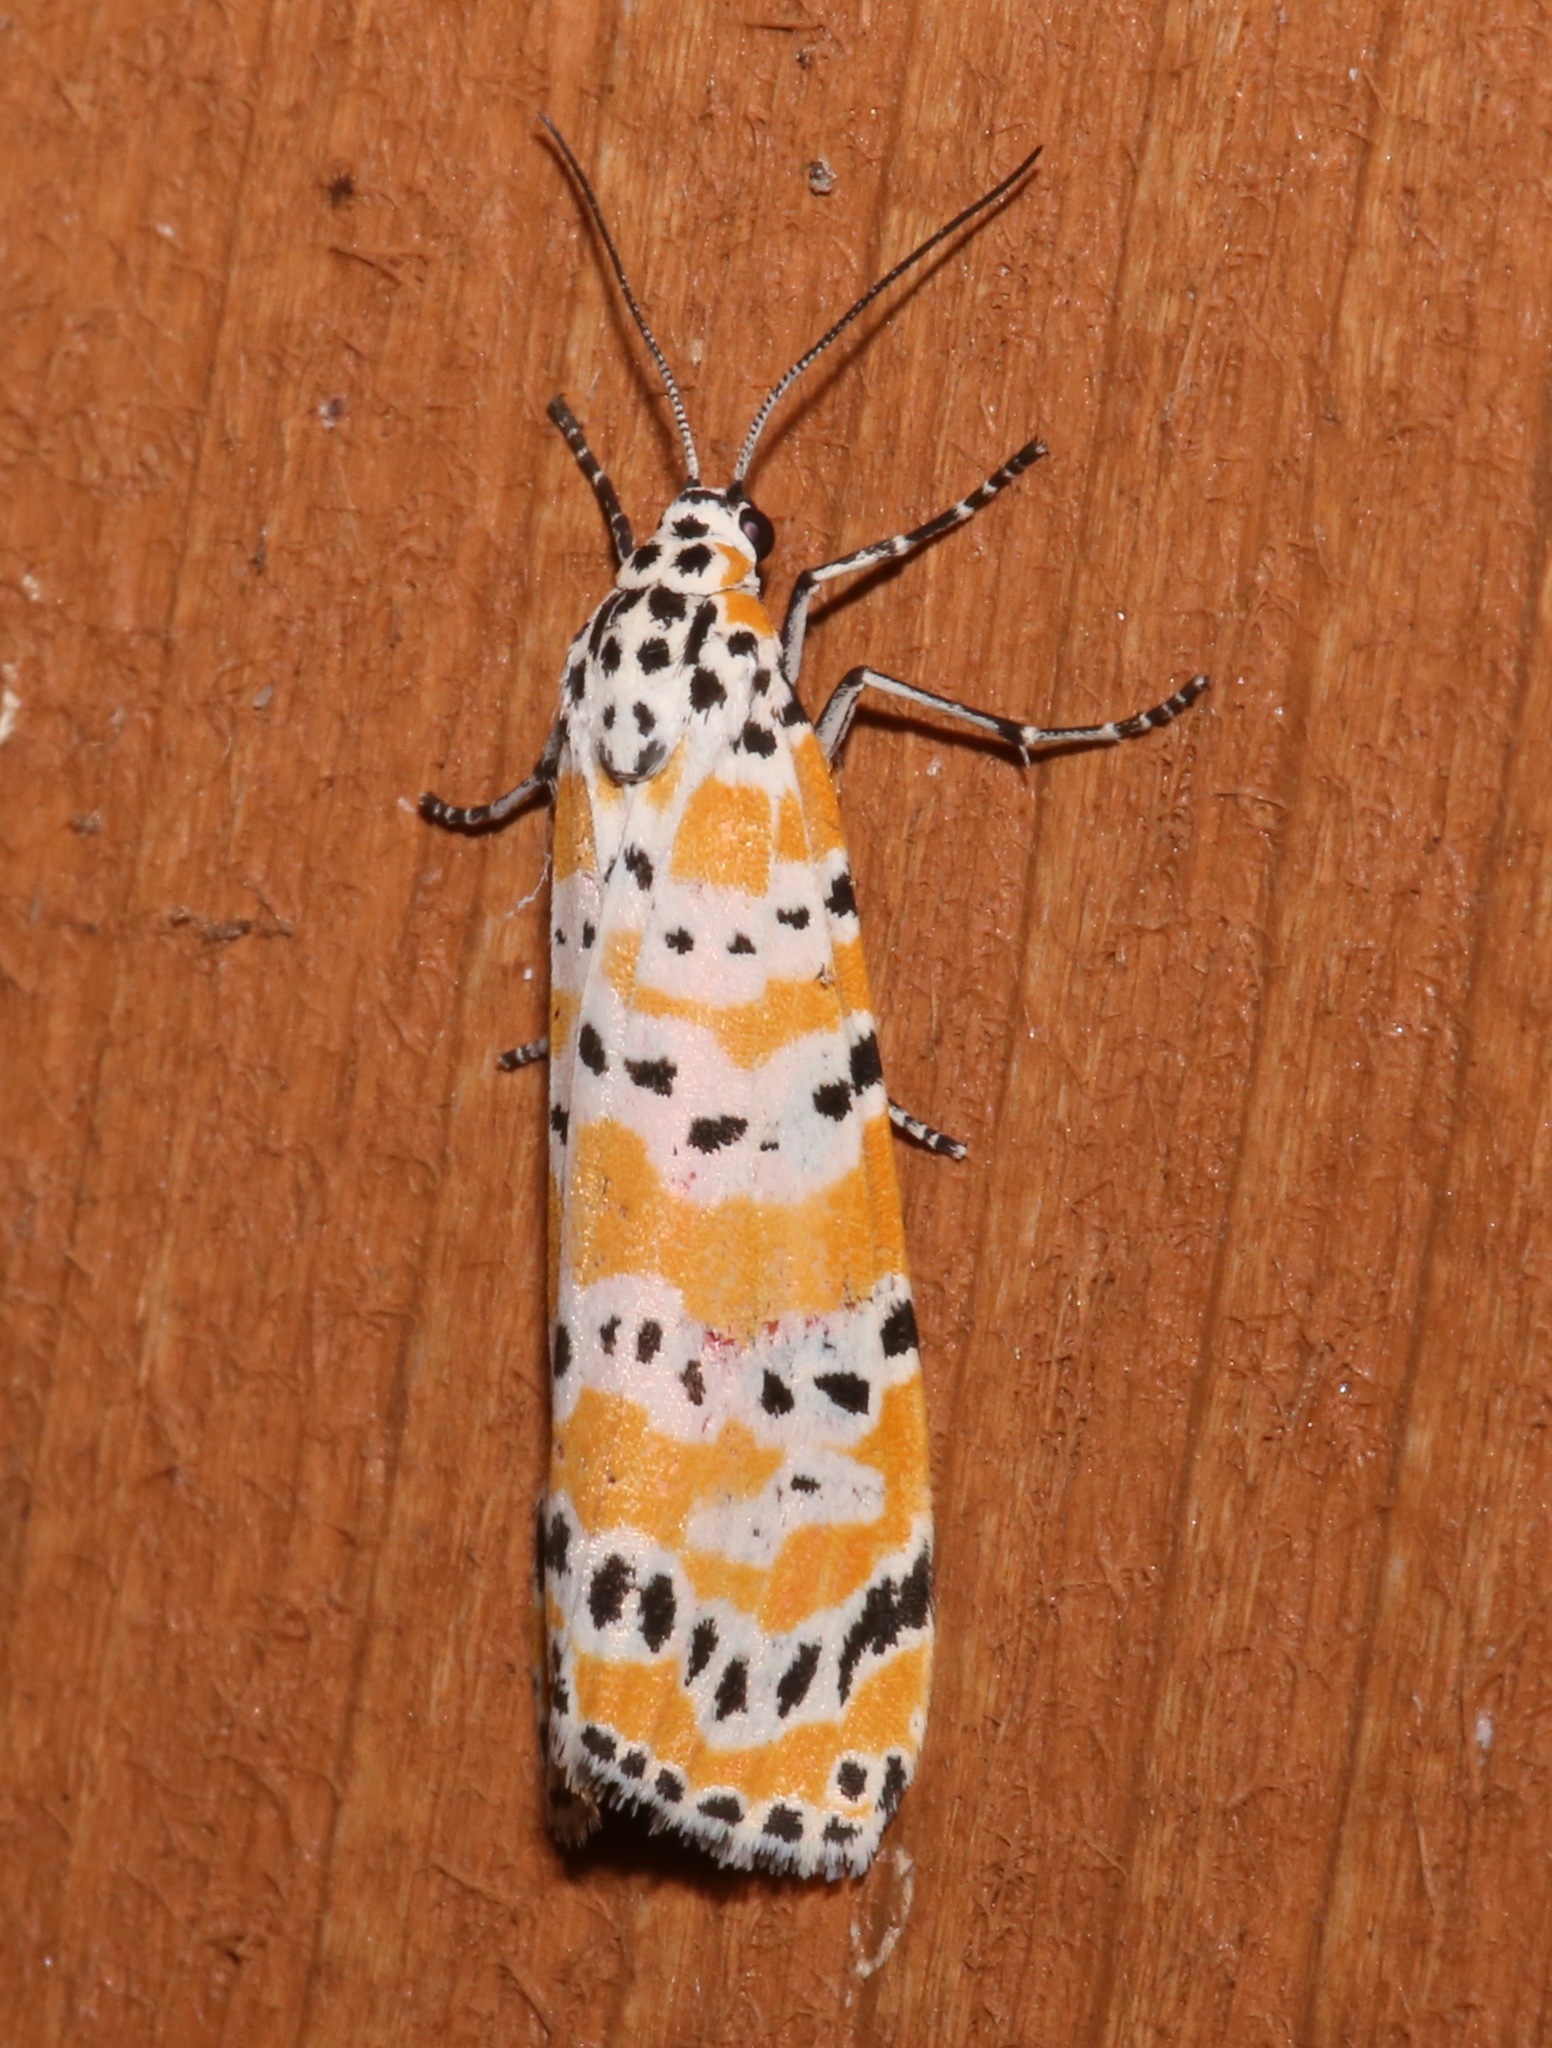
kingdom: Animalia
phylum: Arthropoda
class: Insecta
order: Lepidoptera
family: Erebidae
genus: Utetheisa
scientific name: Utetheisa ornatrix
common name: Beautiful utetheisa
